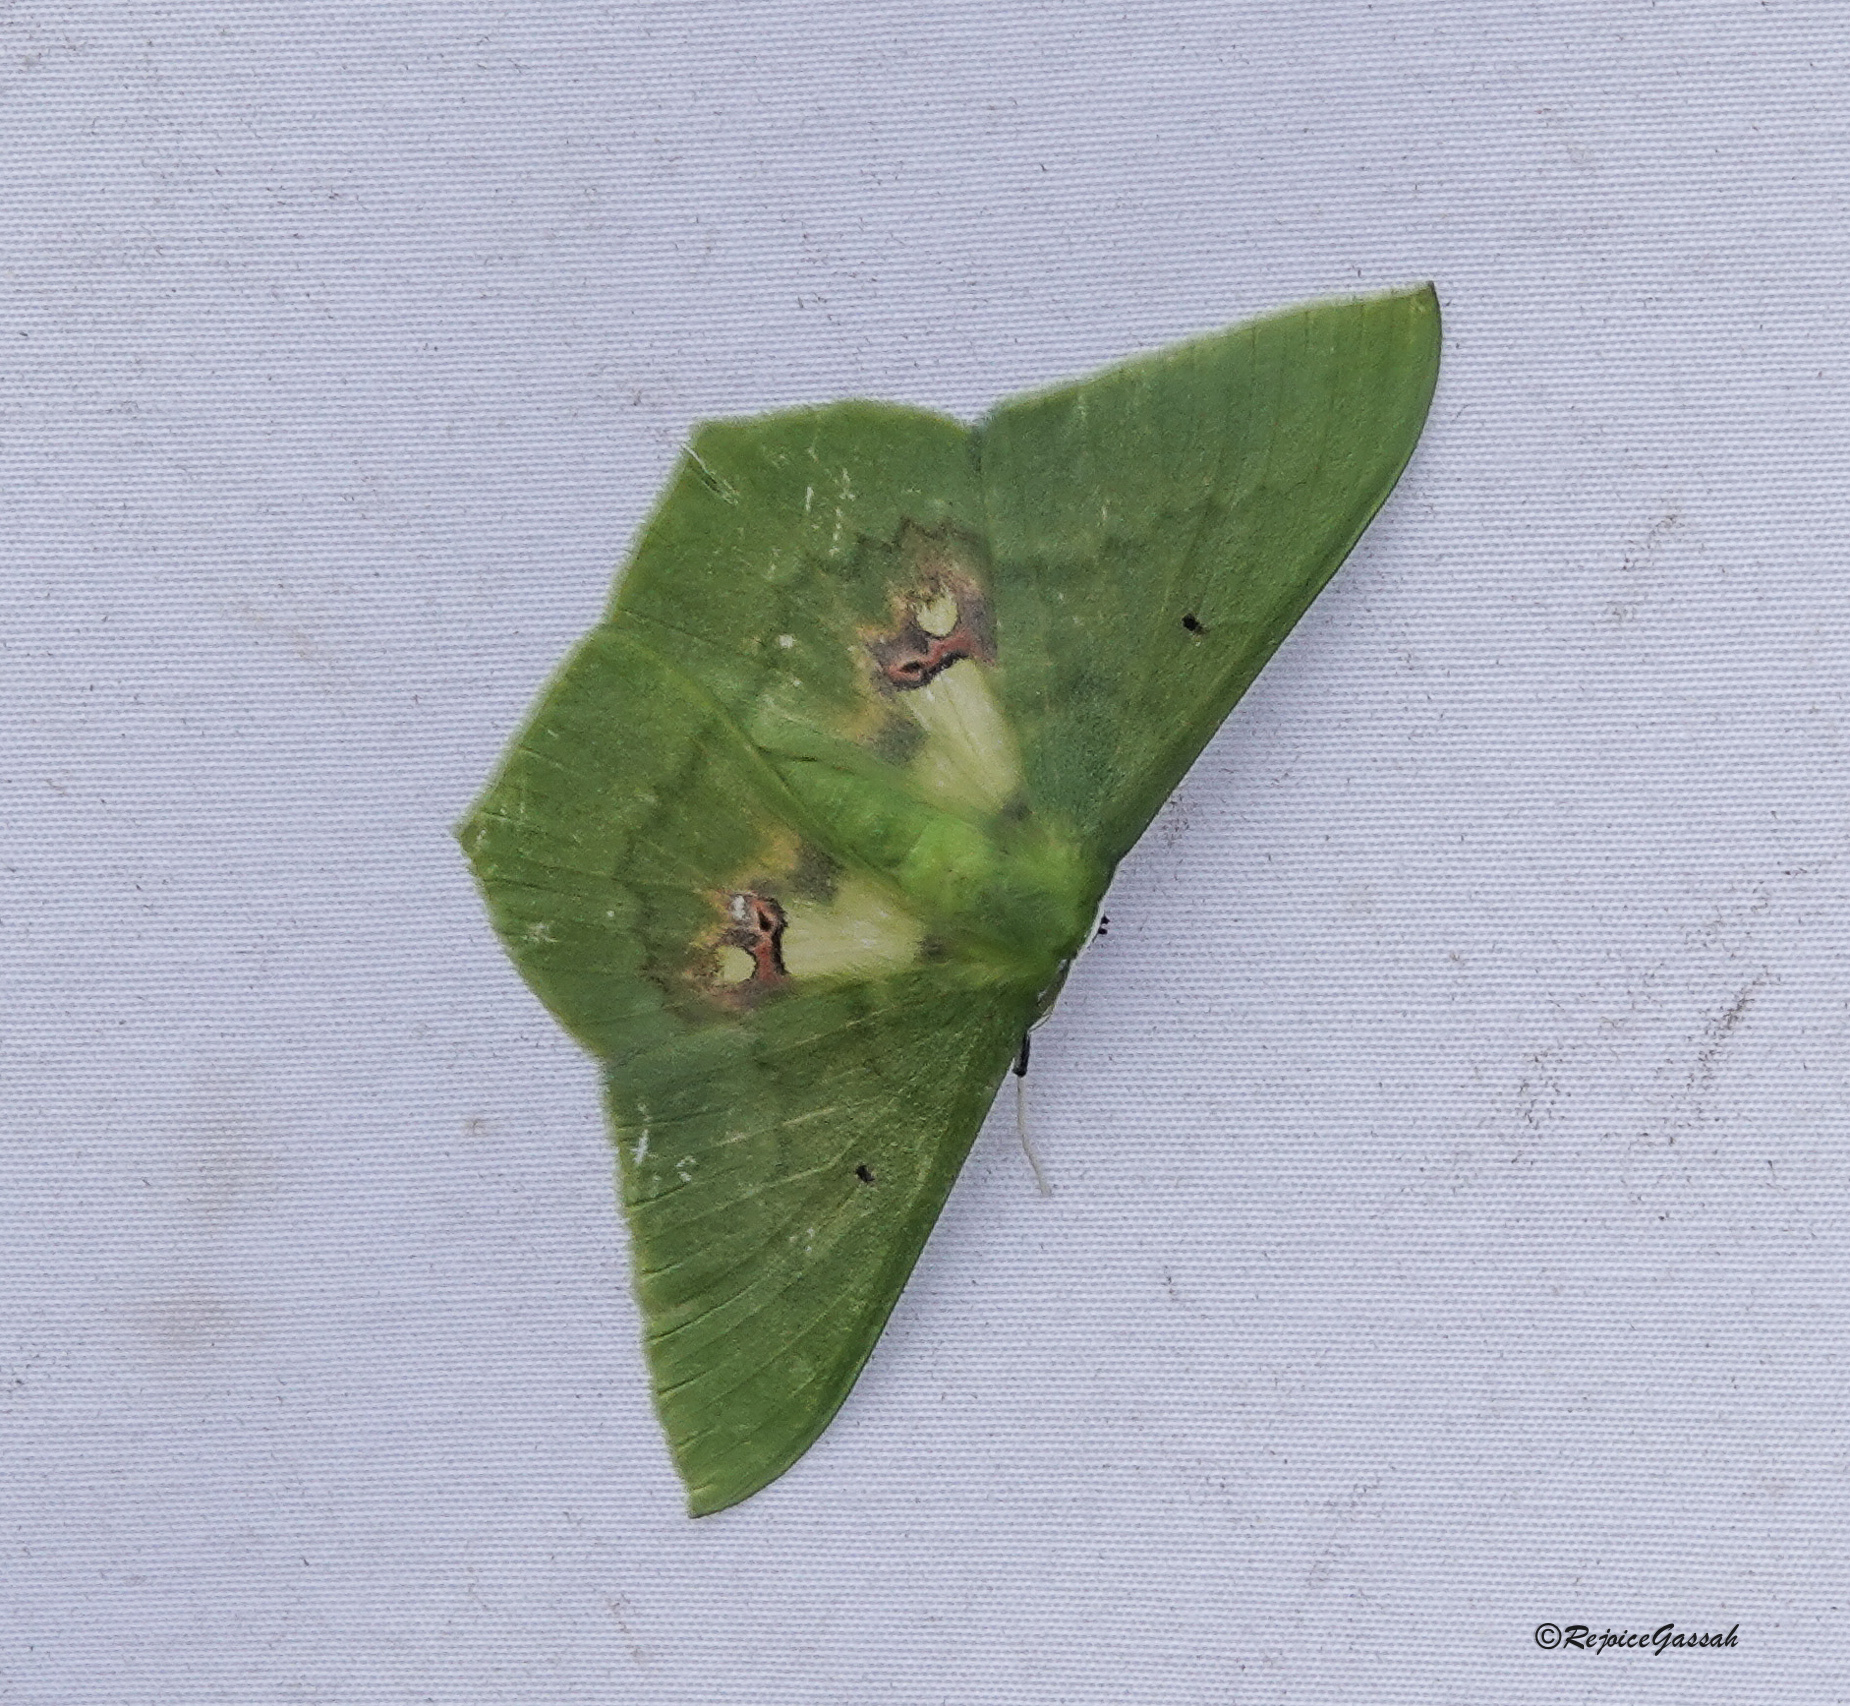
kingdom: Animalia
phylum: Arthropoda
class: Insecta
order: Lepidoptera
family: Geometridae
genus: Aporandria
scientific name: Aporandria specularia
